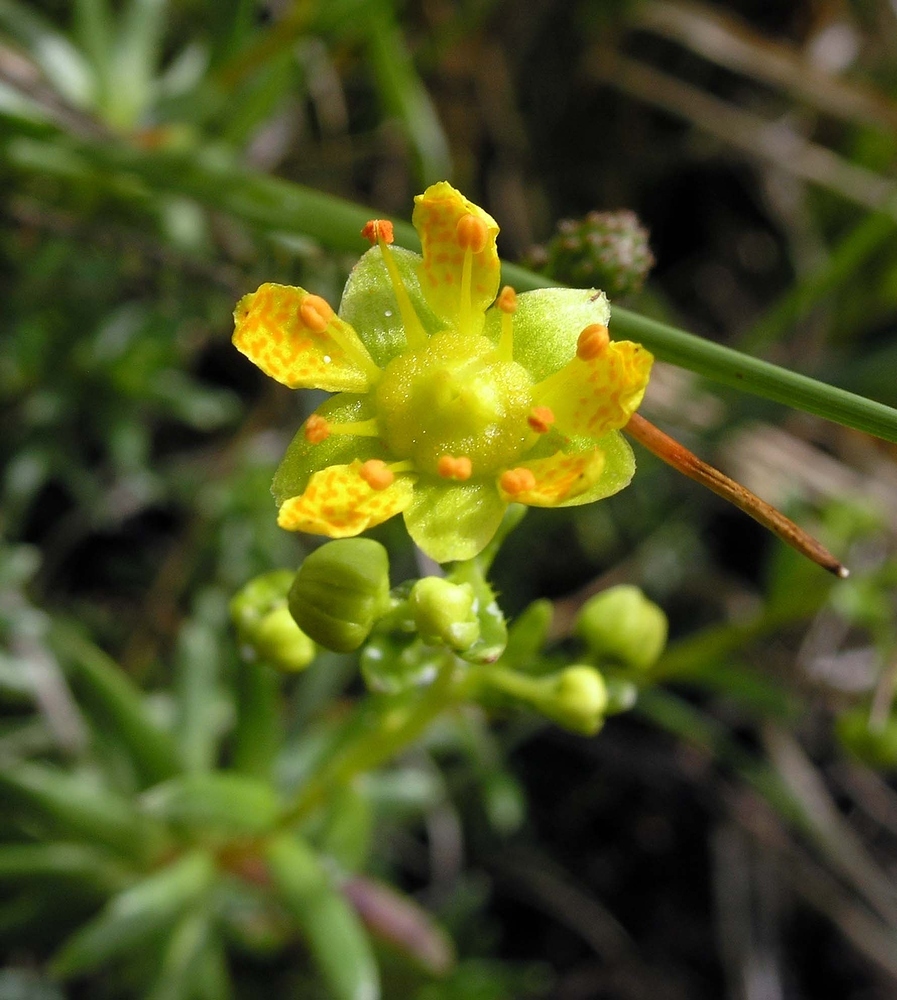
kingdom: Plantae
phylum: Tracheophyta
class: Magnoliopsida
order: Saxifragales
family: Saxifragaceae
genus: Saxifraga
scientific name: Saxifraga aizoides
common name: Yellow mountain saxifrage
